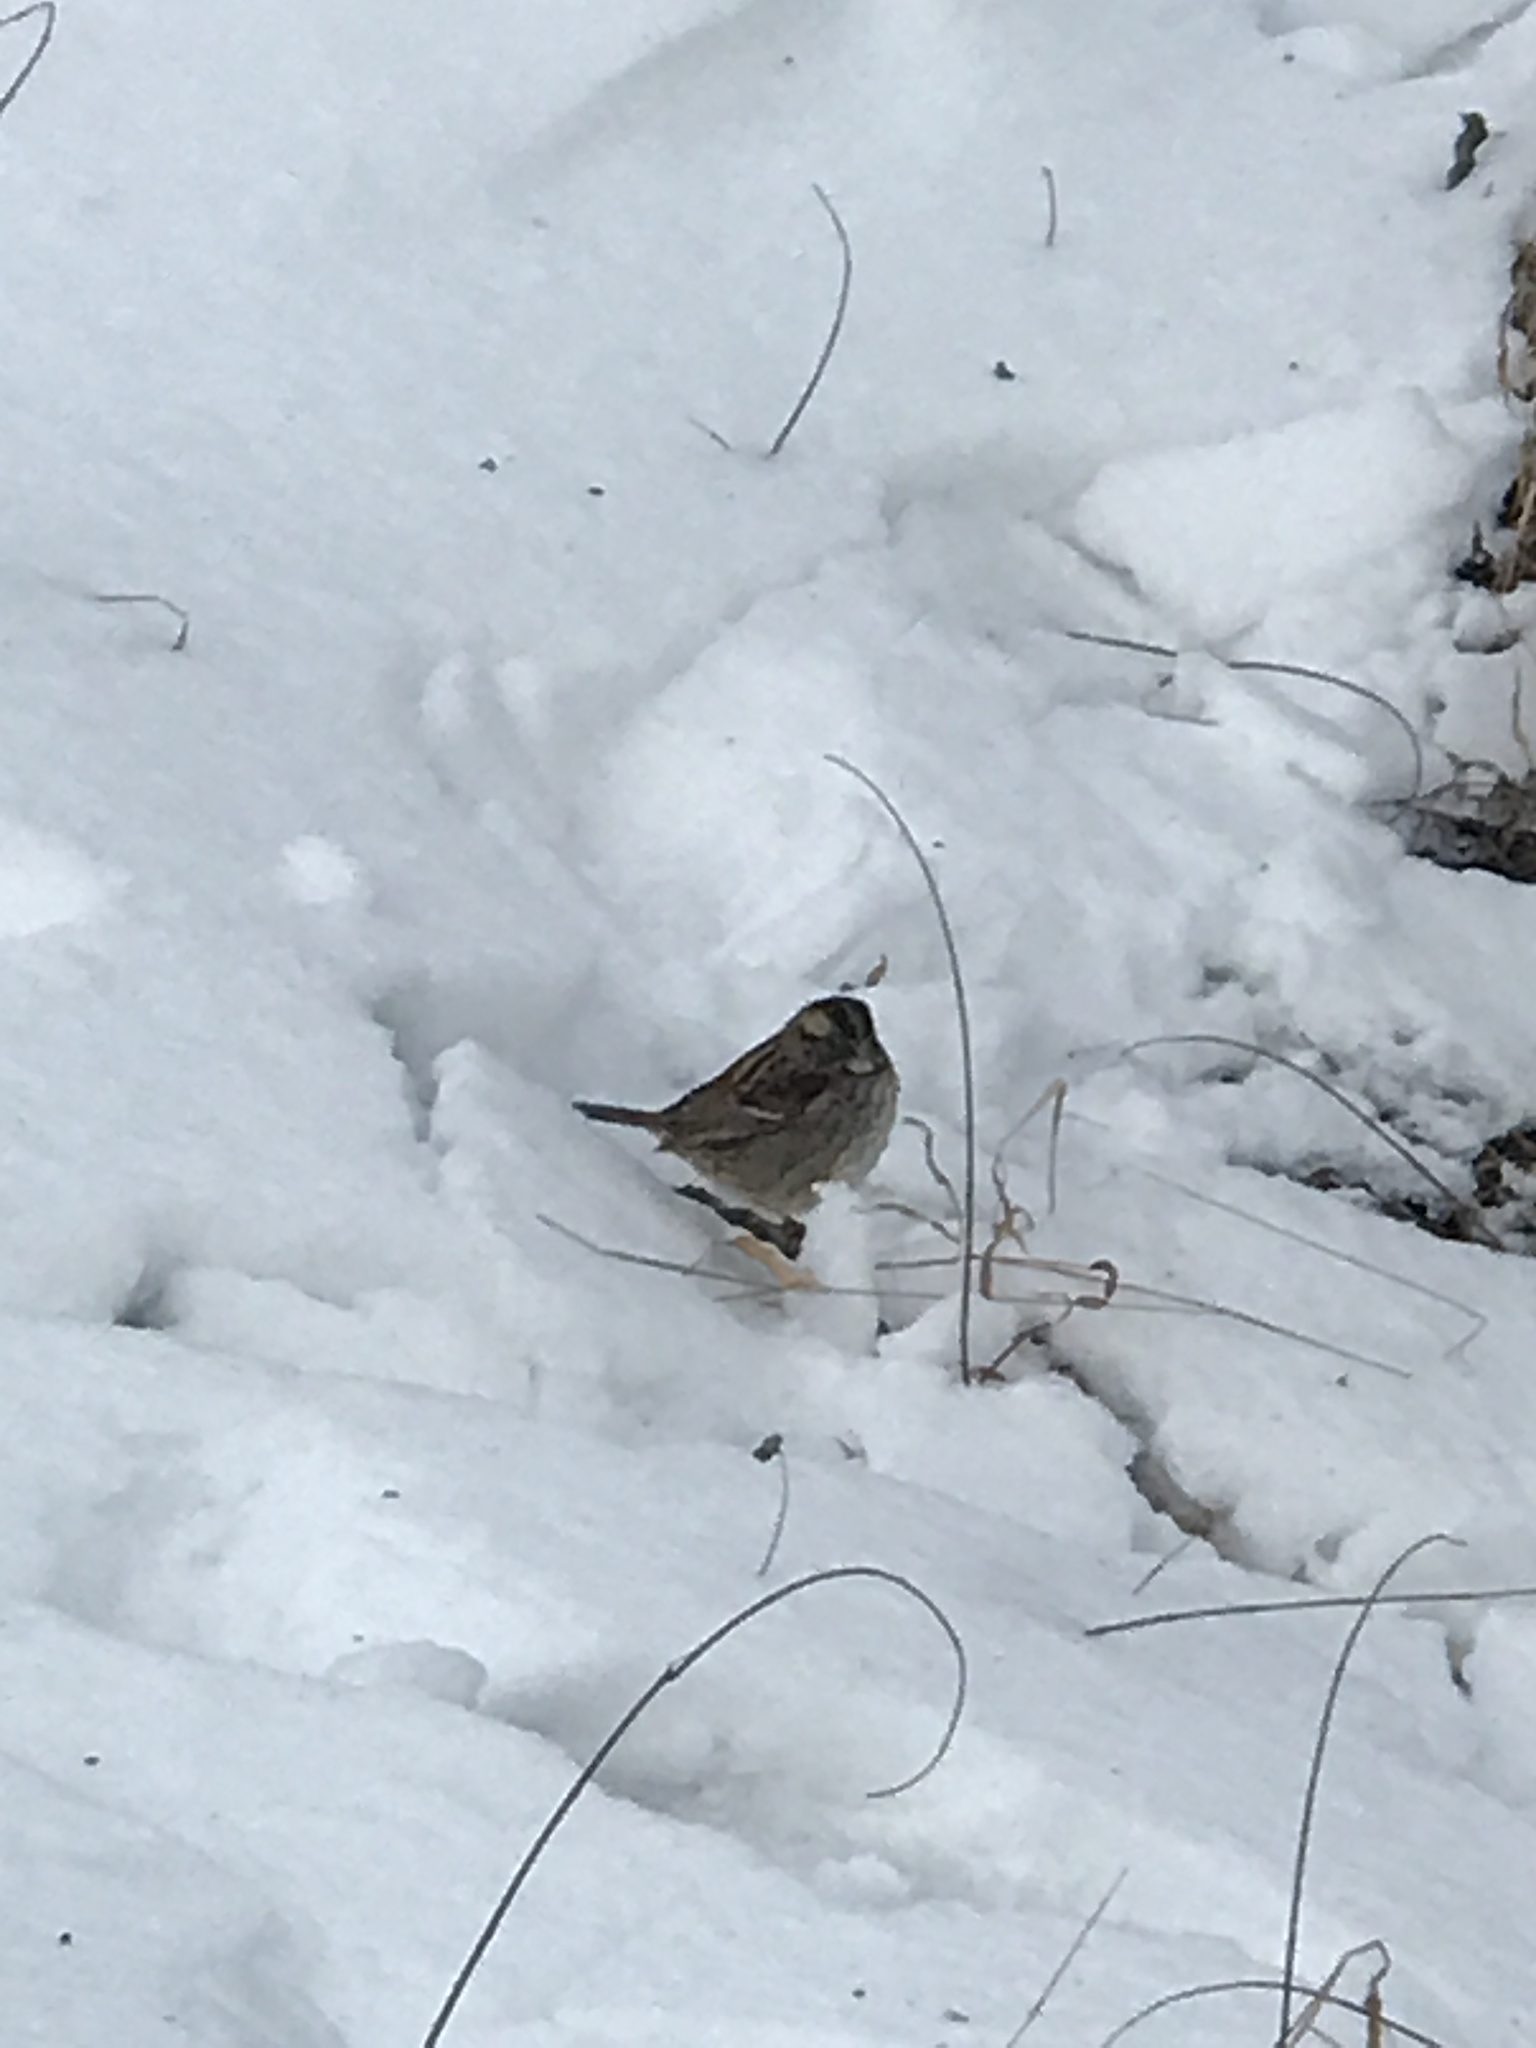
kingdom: Animalia
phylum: Chordata
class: Aves
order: Passeriformes
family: Passerellidae
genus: Zonotrichia
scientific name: Zonotrichia albicollis
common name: White-throated sparrow
